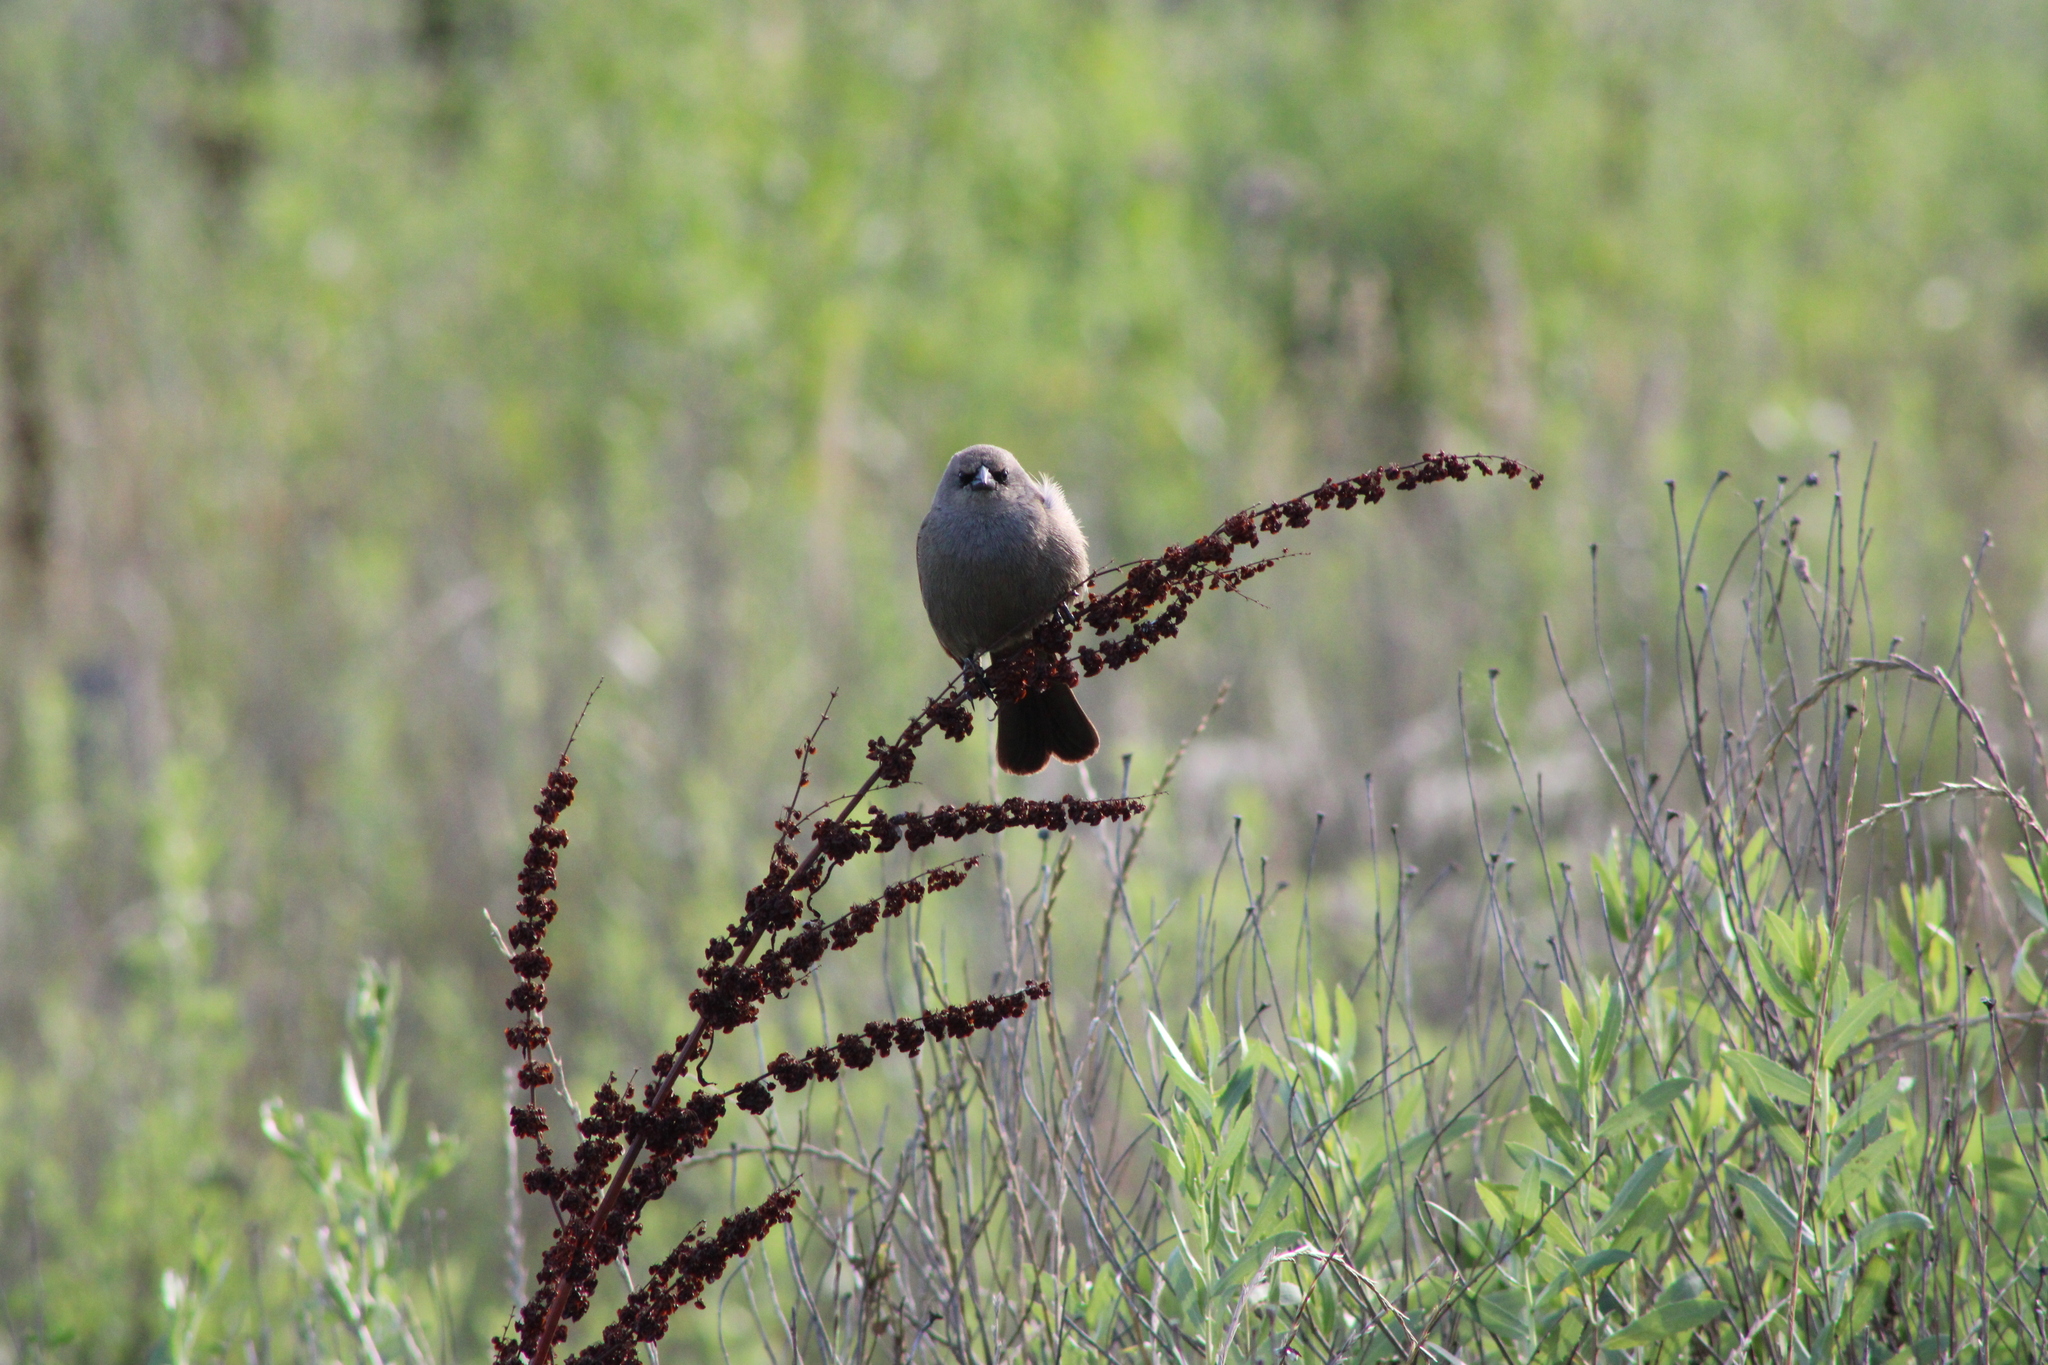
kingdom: Animalia
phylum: Chordata
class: Aves
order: Passeriformes
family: Icteridae
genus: Agelaioides
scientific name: Agelaioides badius
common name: Baywing
